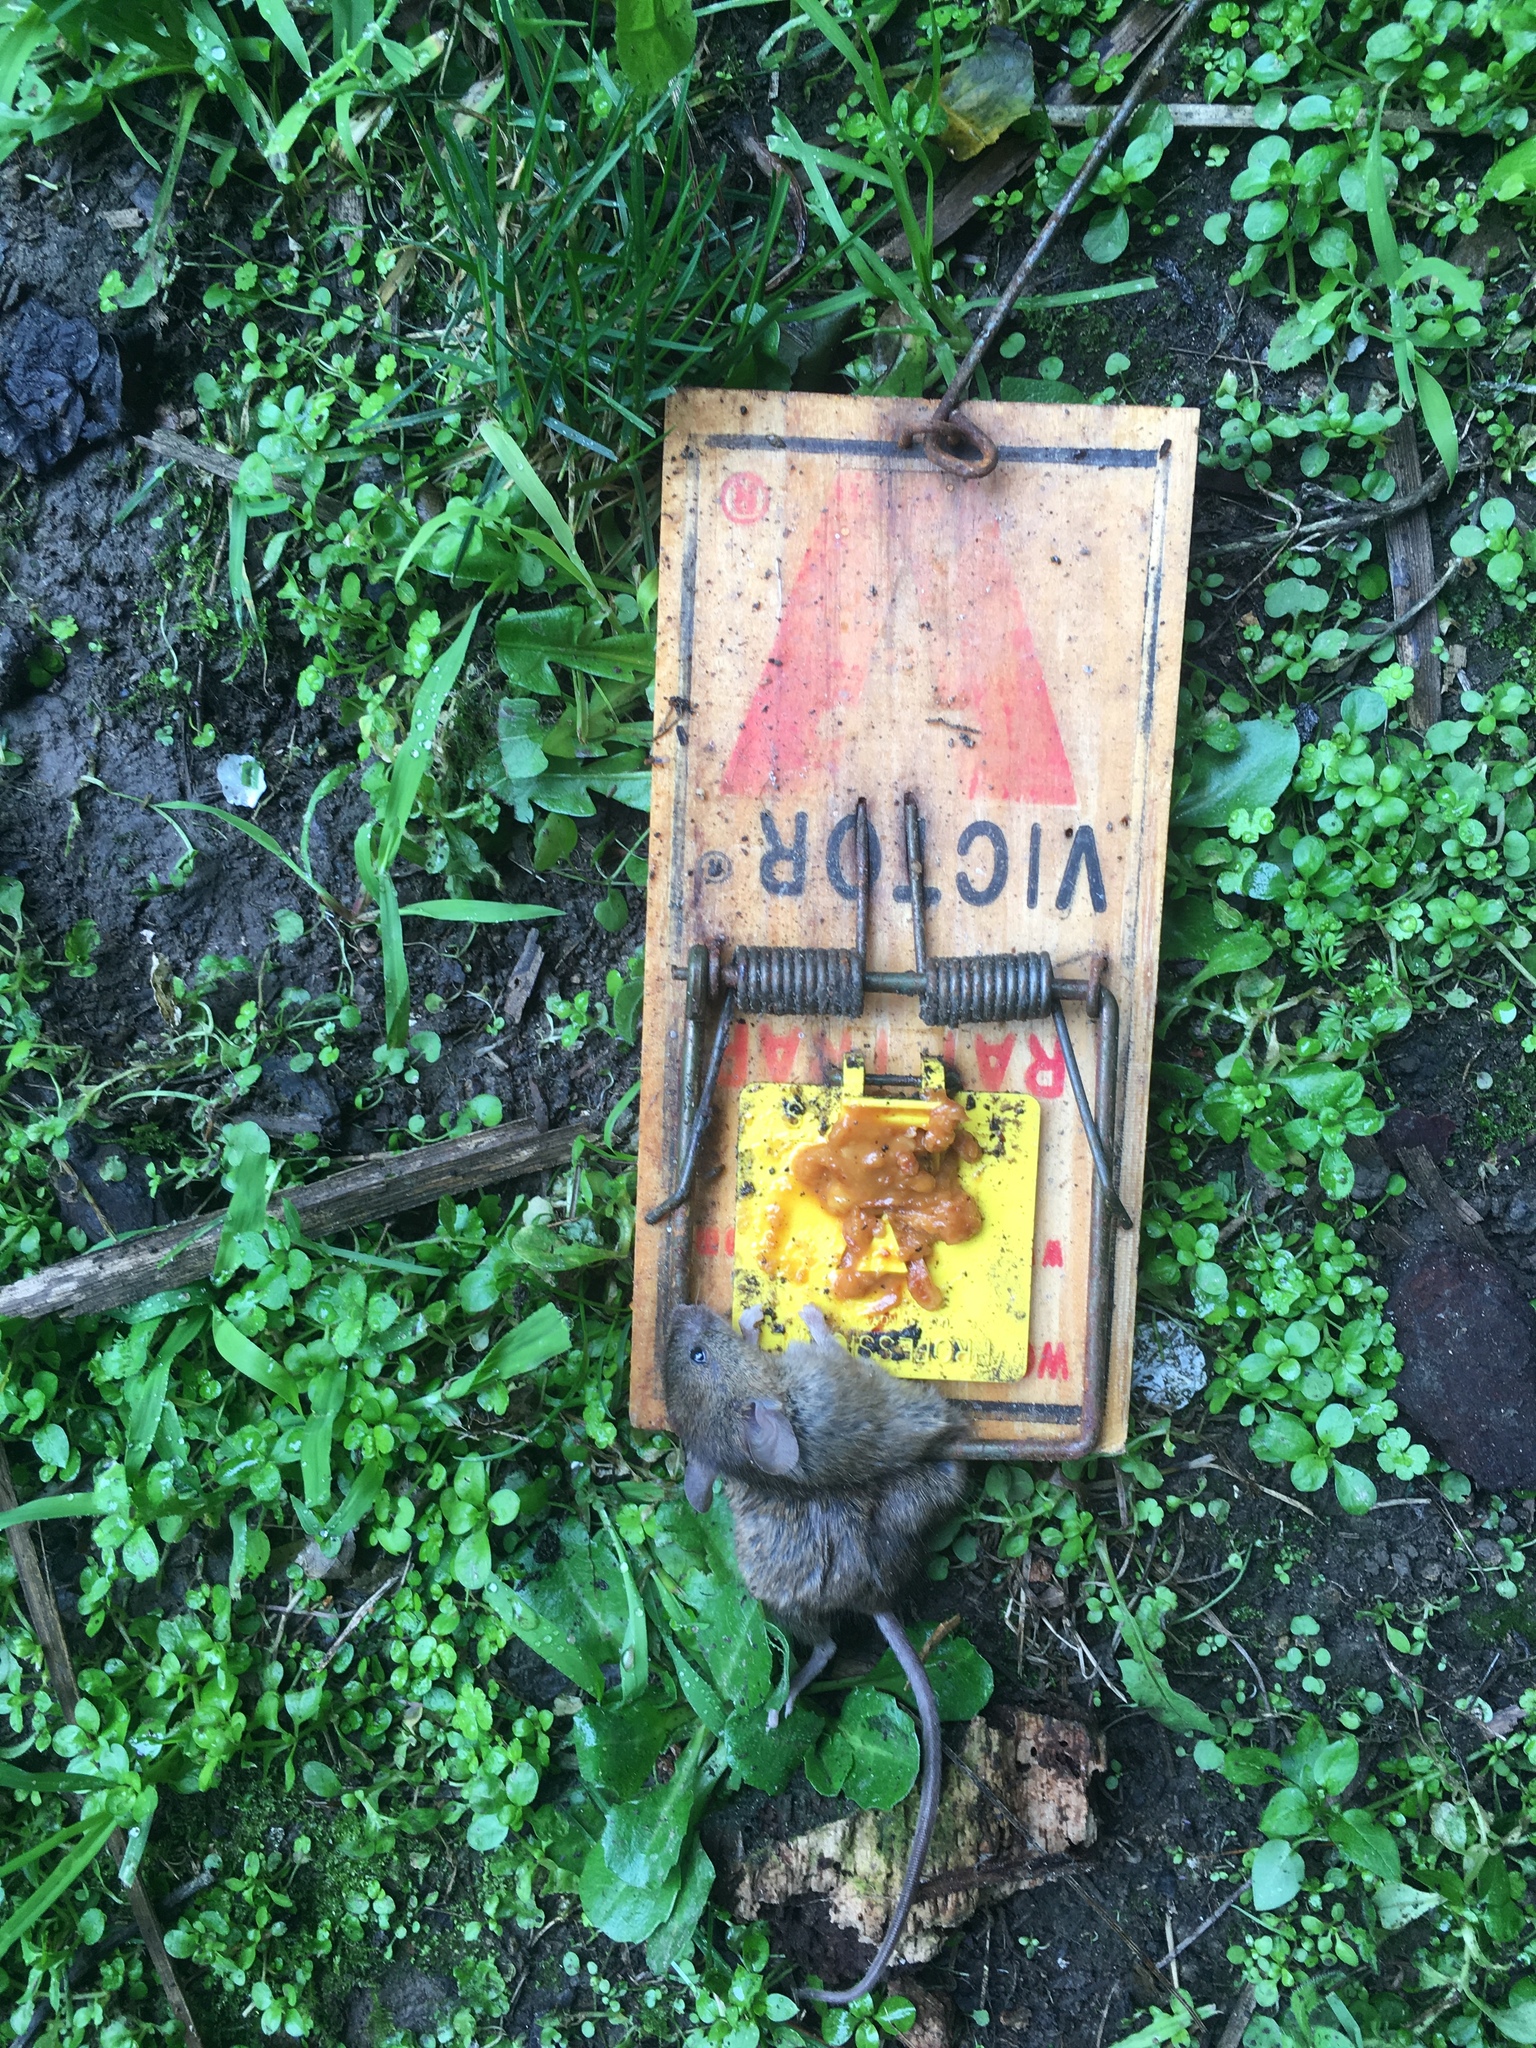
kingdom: Animalia
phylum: Chordata
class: Mammalia
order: Rodentia
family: Muridae
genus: Mus
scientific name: Mus musculus
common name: House mouse
